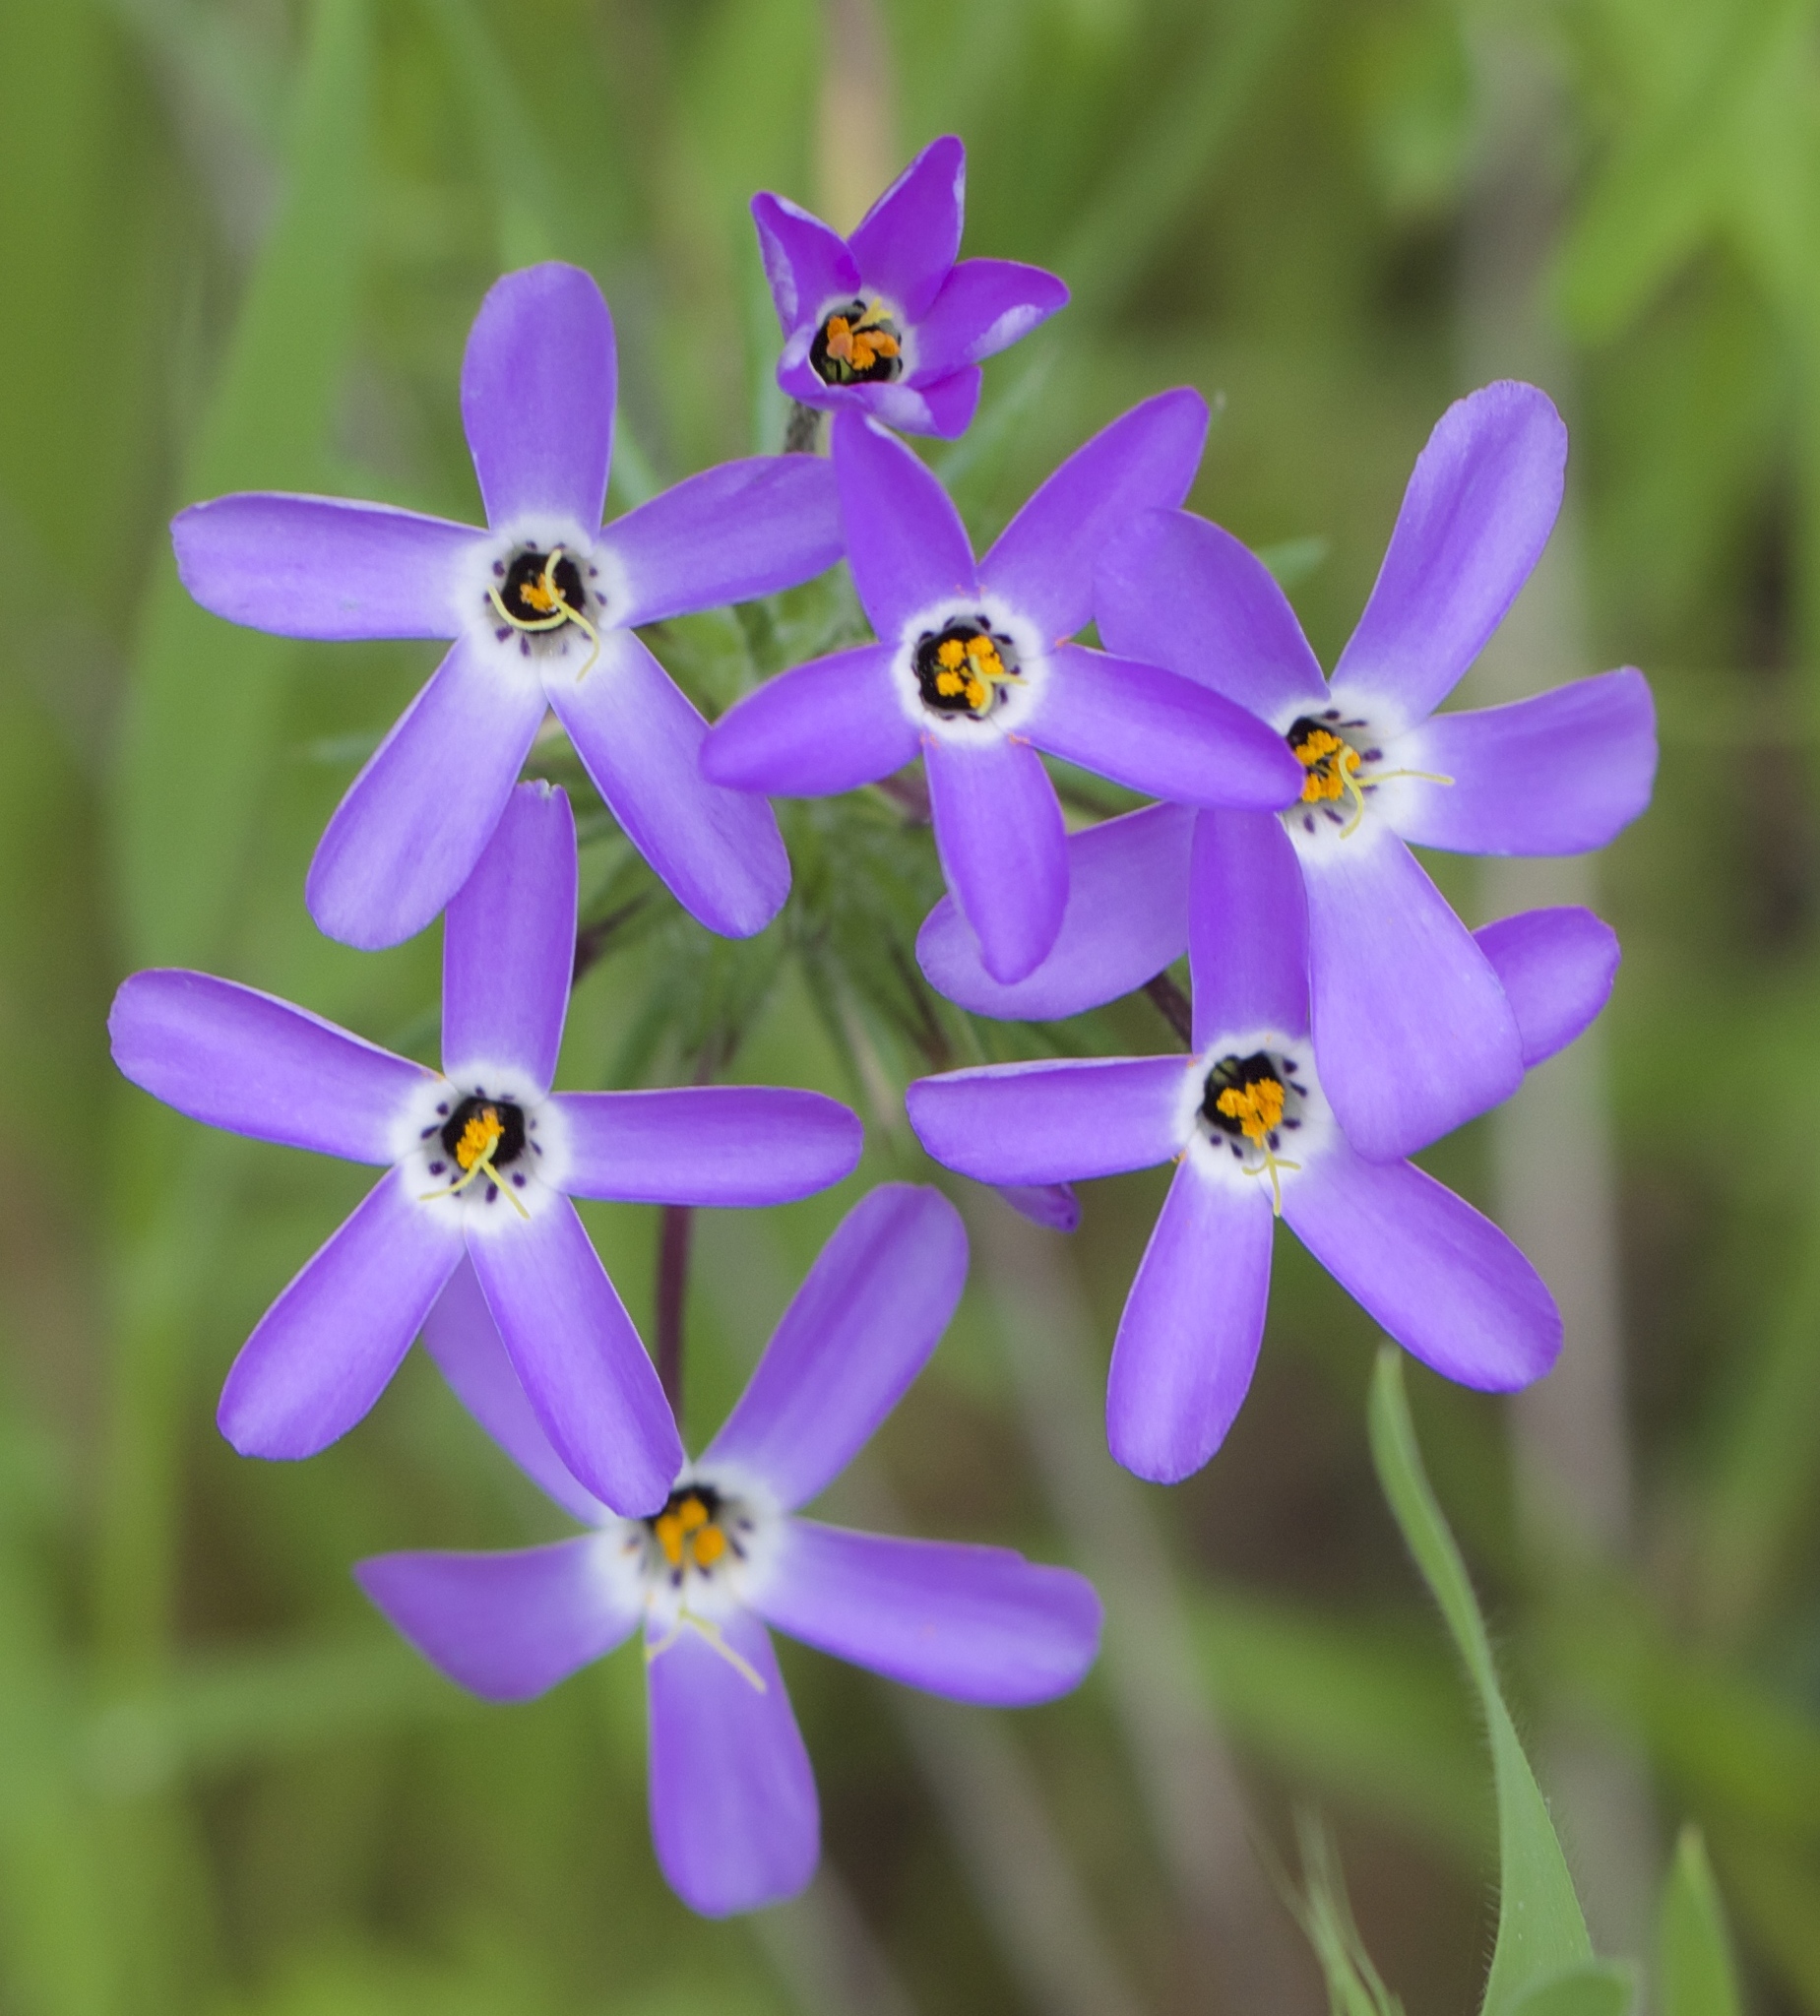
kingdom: Plantae
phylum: Tracheophyta
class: Magnoliopsida
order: Ericales
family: Polemoniaceae
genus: Leptosiphon
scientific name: Leptosiphon androsaceus
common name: False babystars
